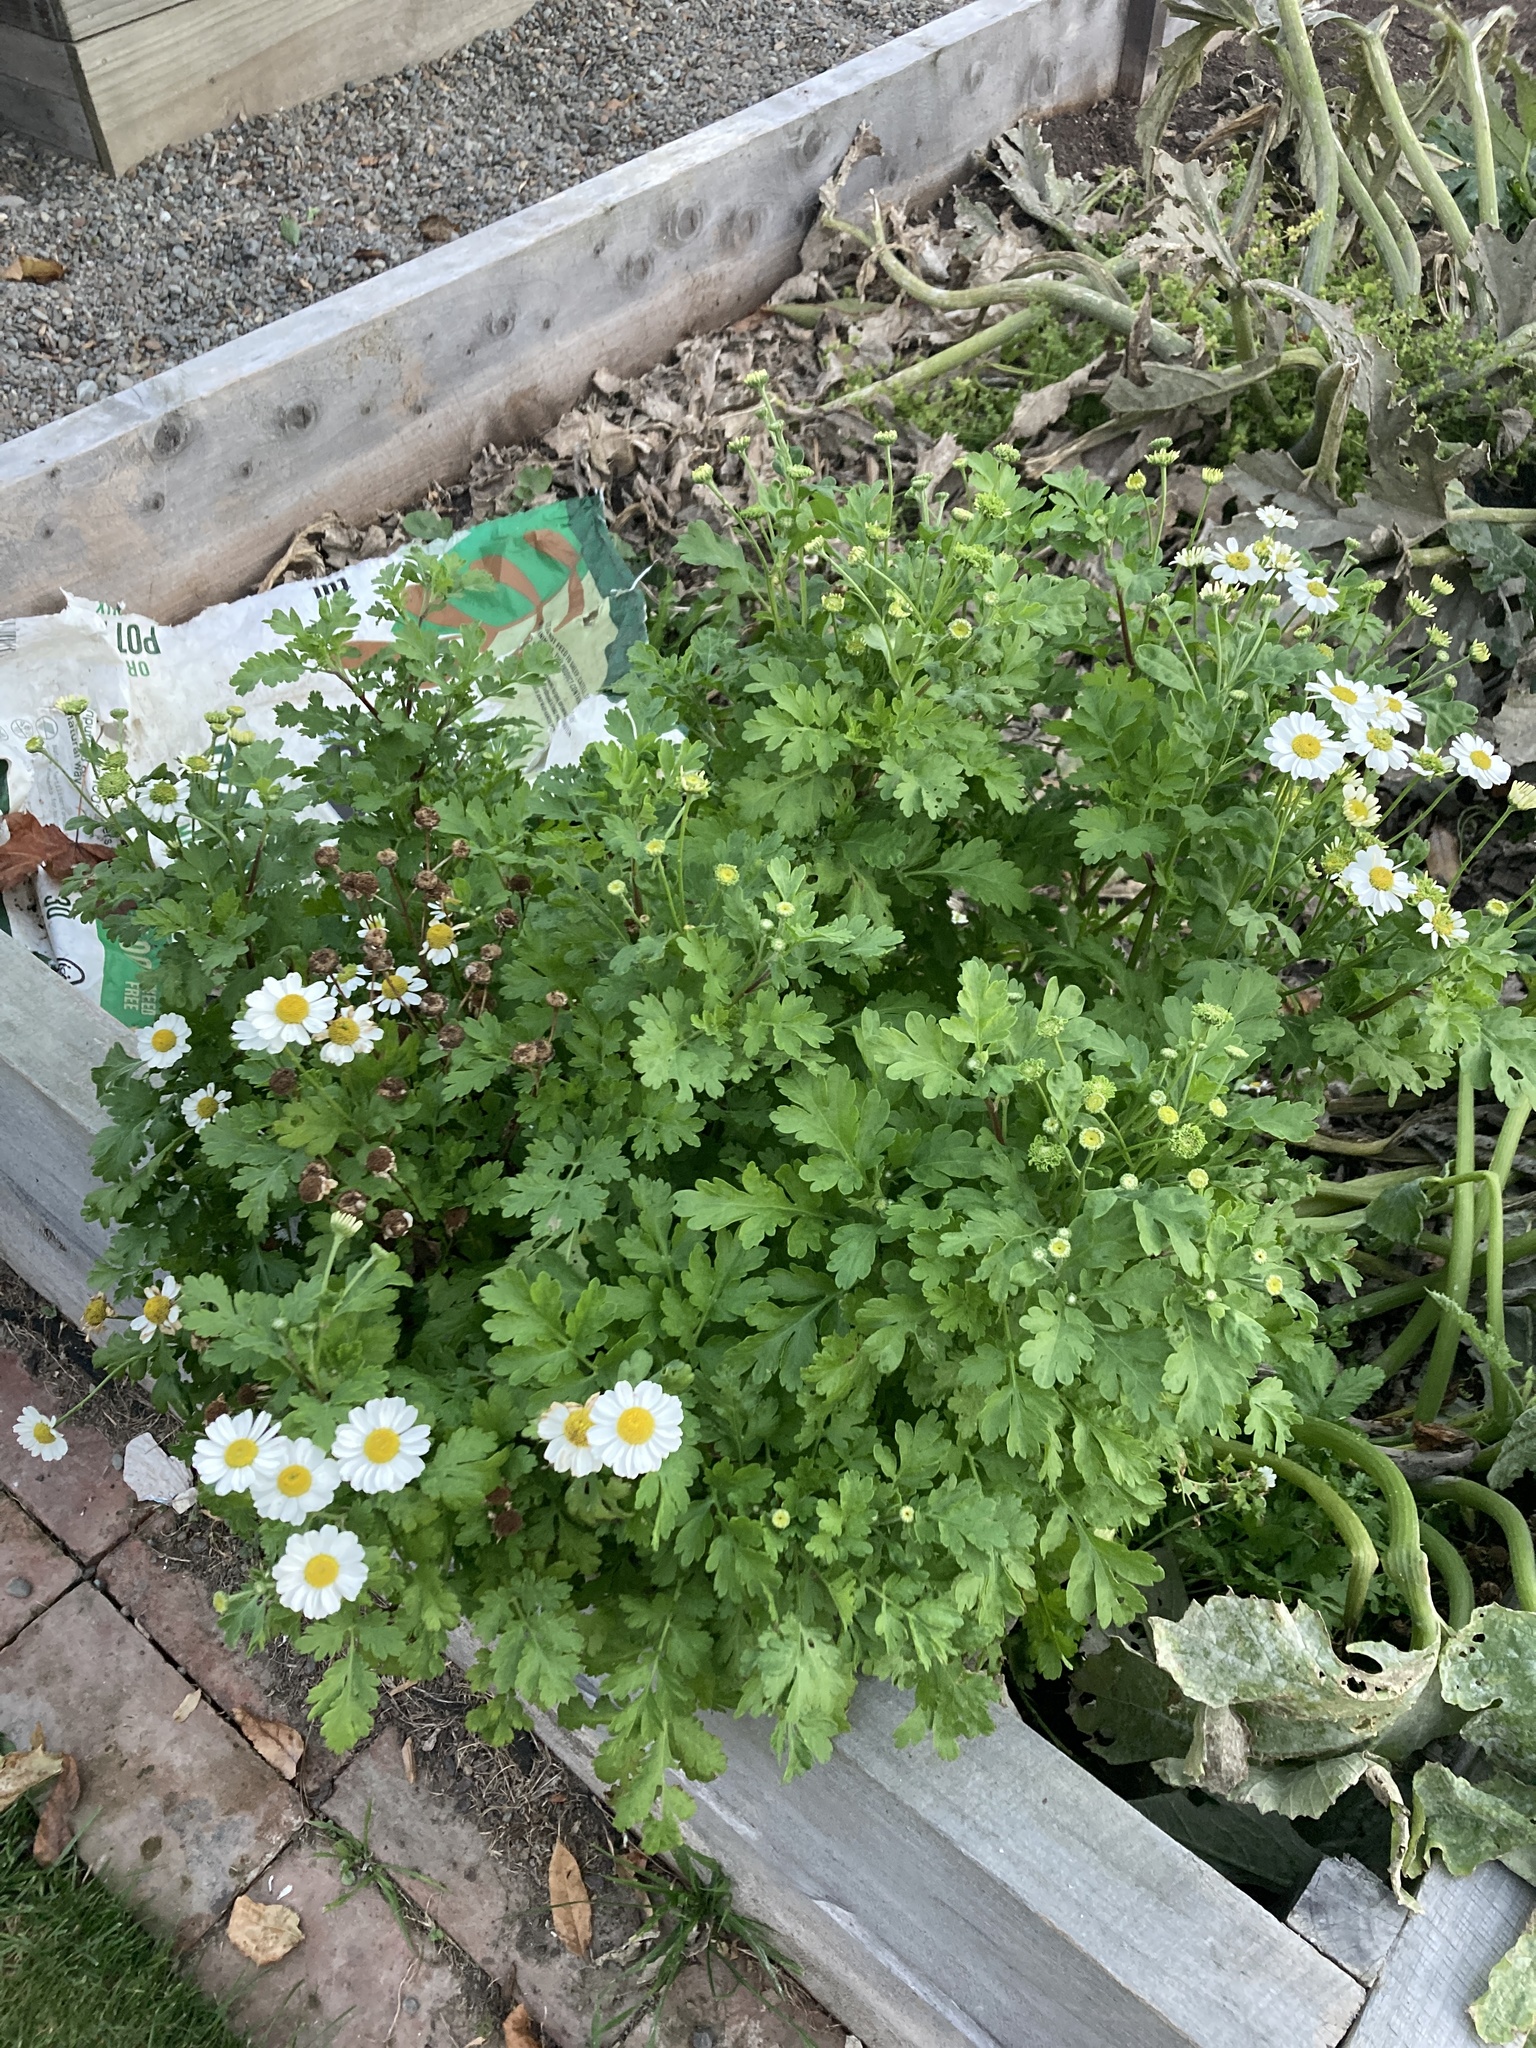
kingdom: Plantae
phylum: Tracheophyta
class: Magnoliopsida
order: Asterales
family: Asteraceae
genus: Tanacetum
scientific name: Tanacetum parthenium
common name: Feverfew
